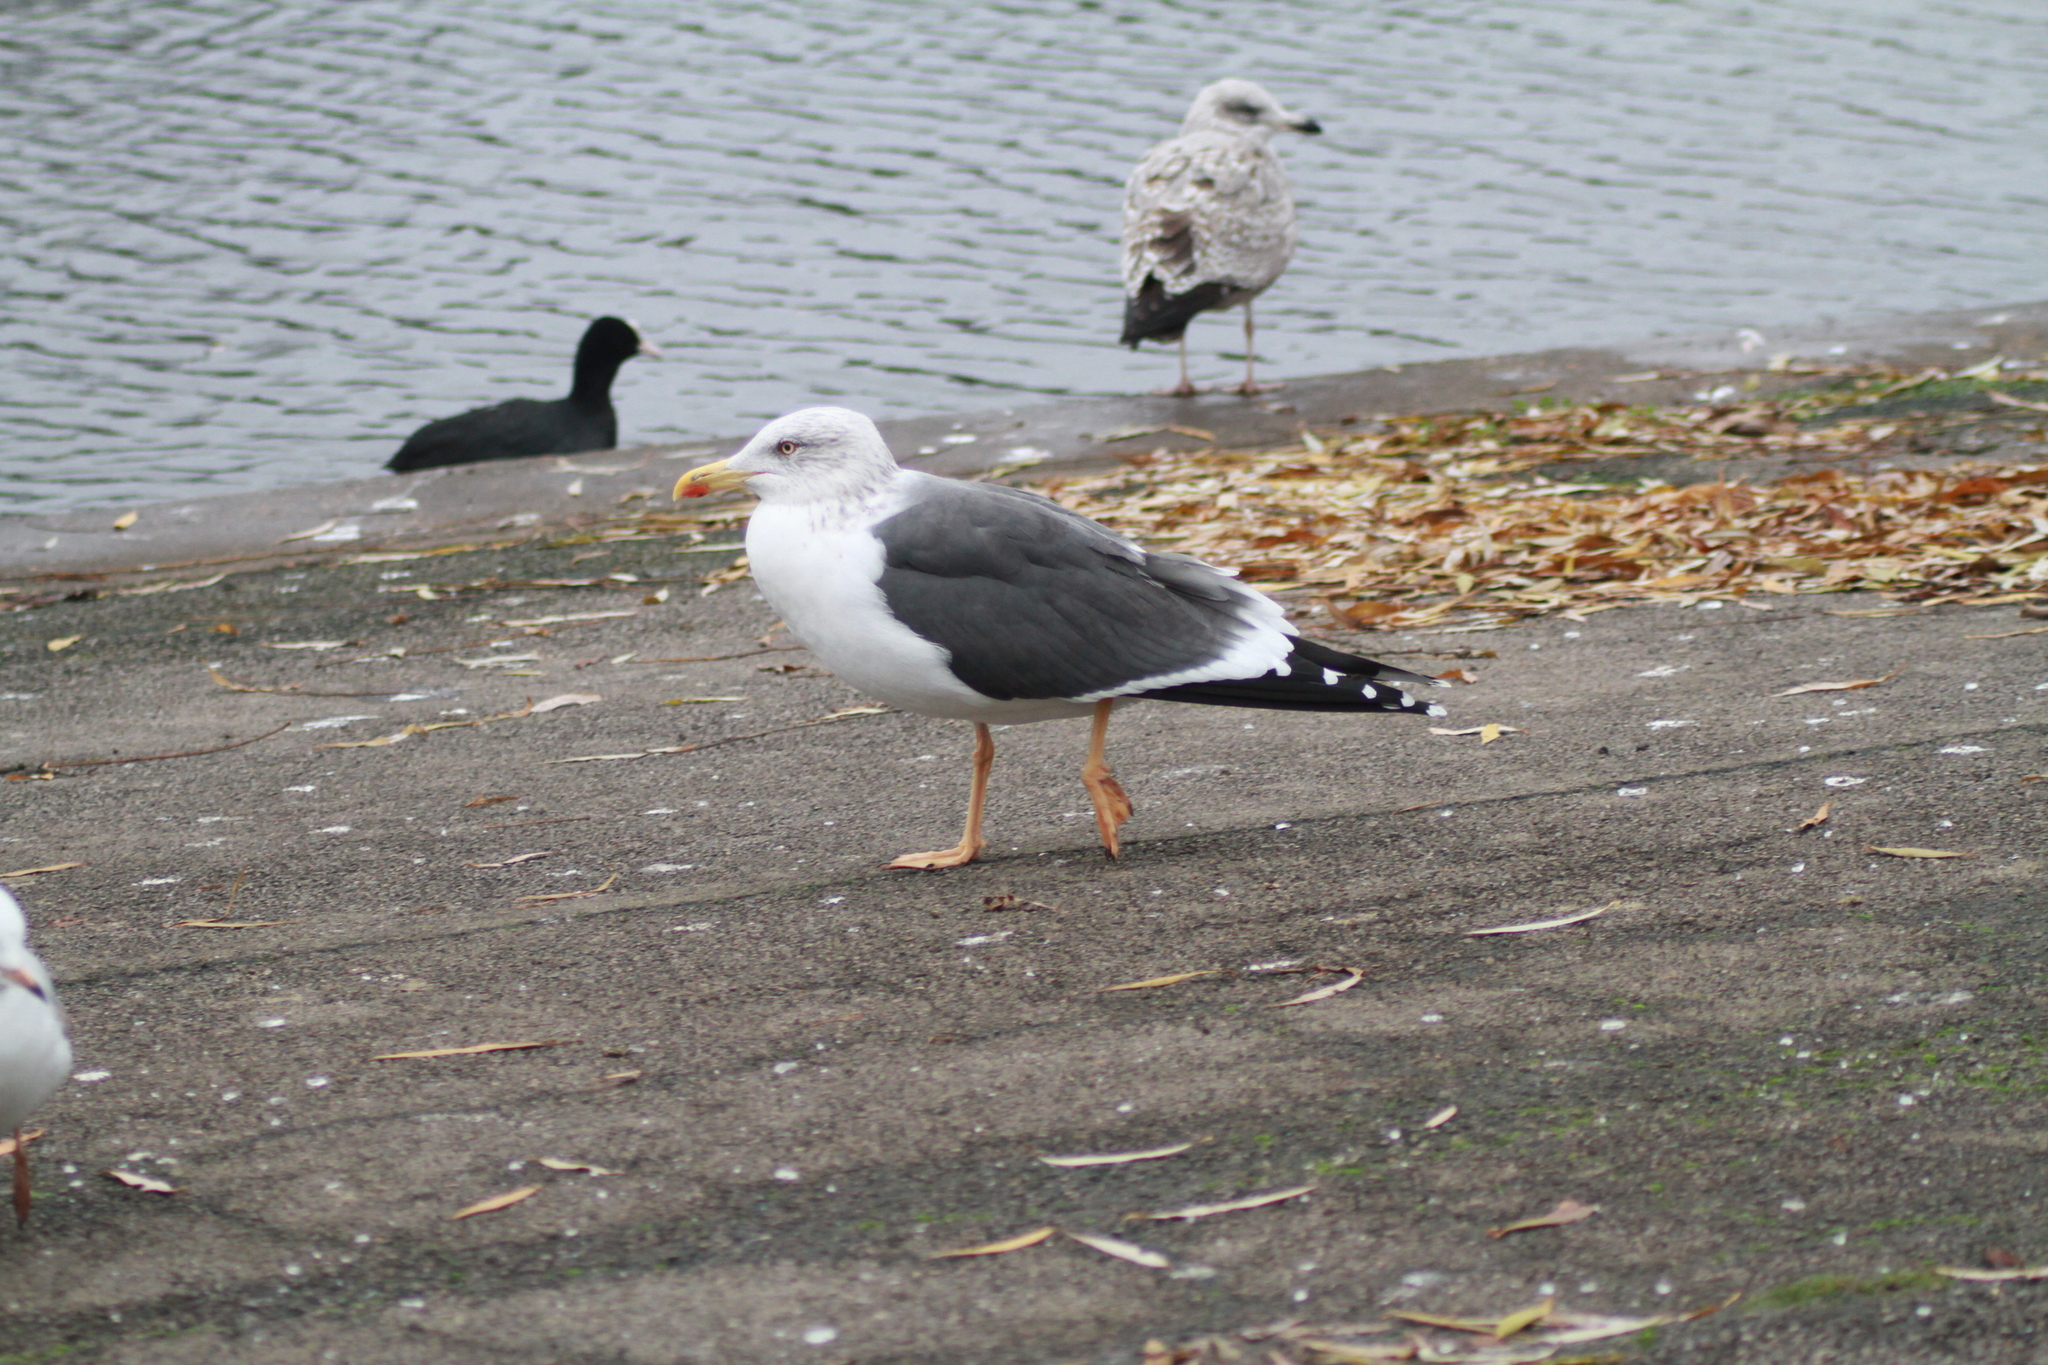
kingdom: Animalia
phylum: Chordata
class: Aves
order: Charadriiformes
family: Laridae
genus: Larus
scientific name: Larus fuscus
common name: Lesser black-backed gull
